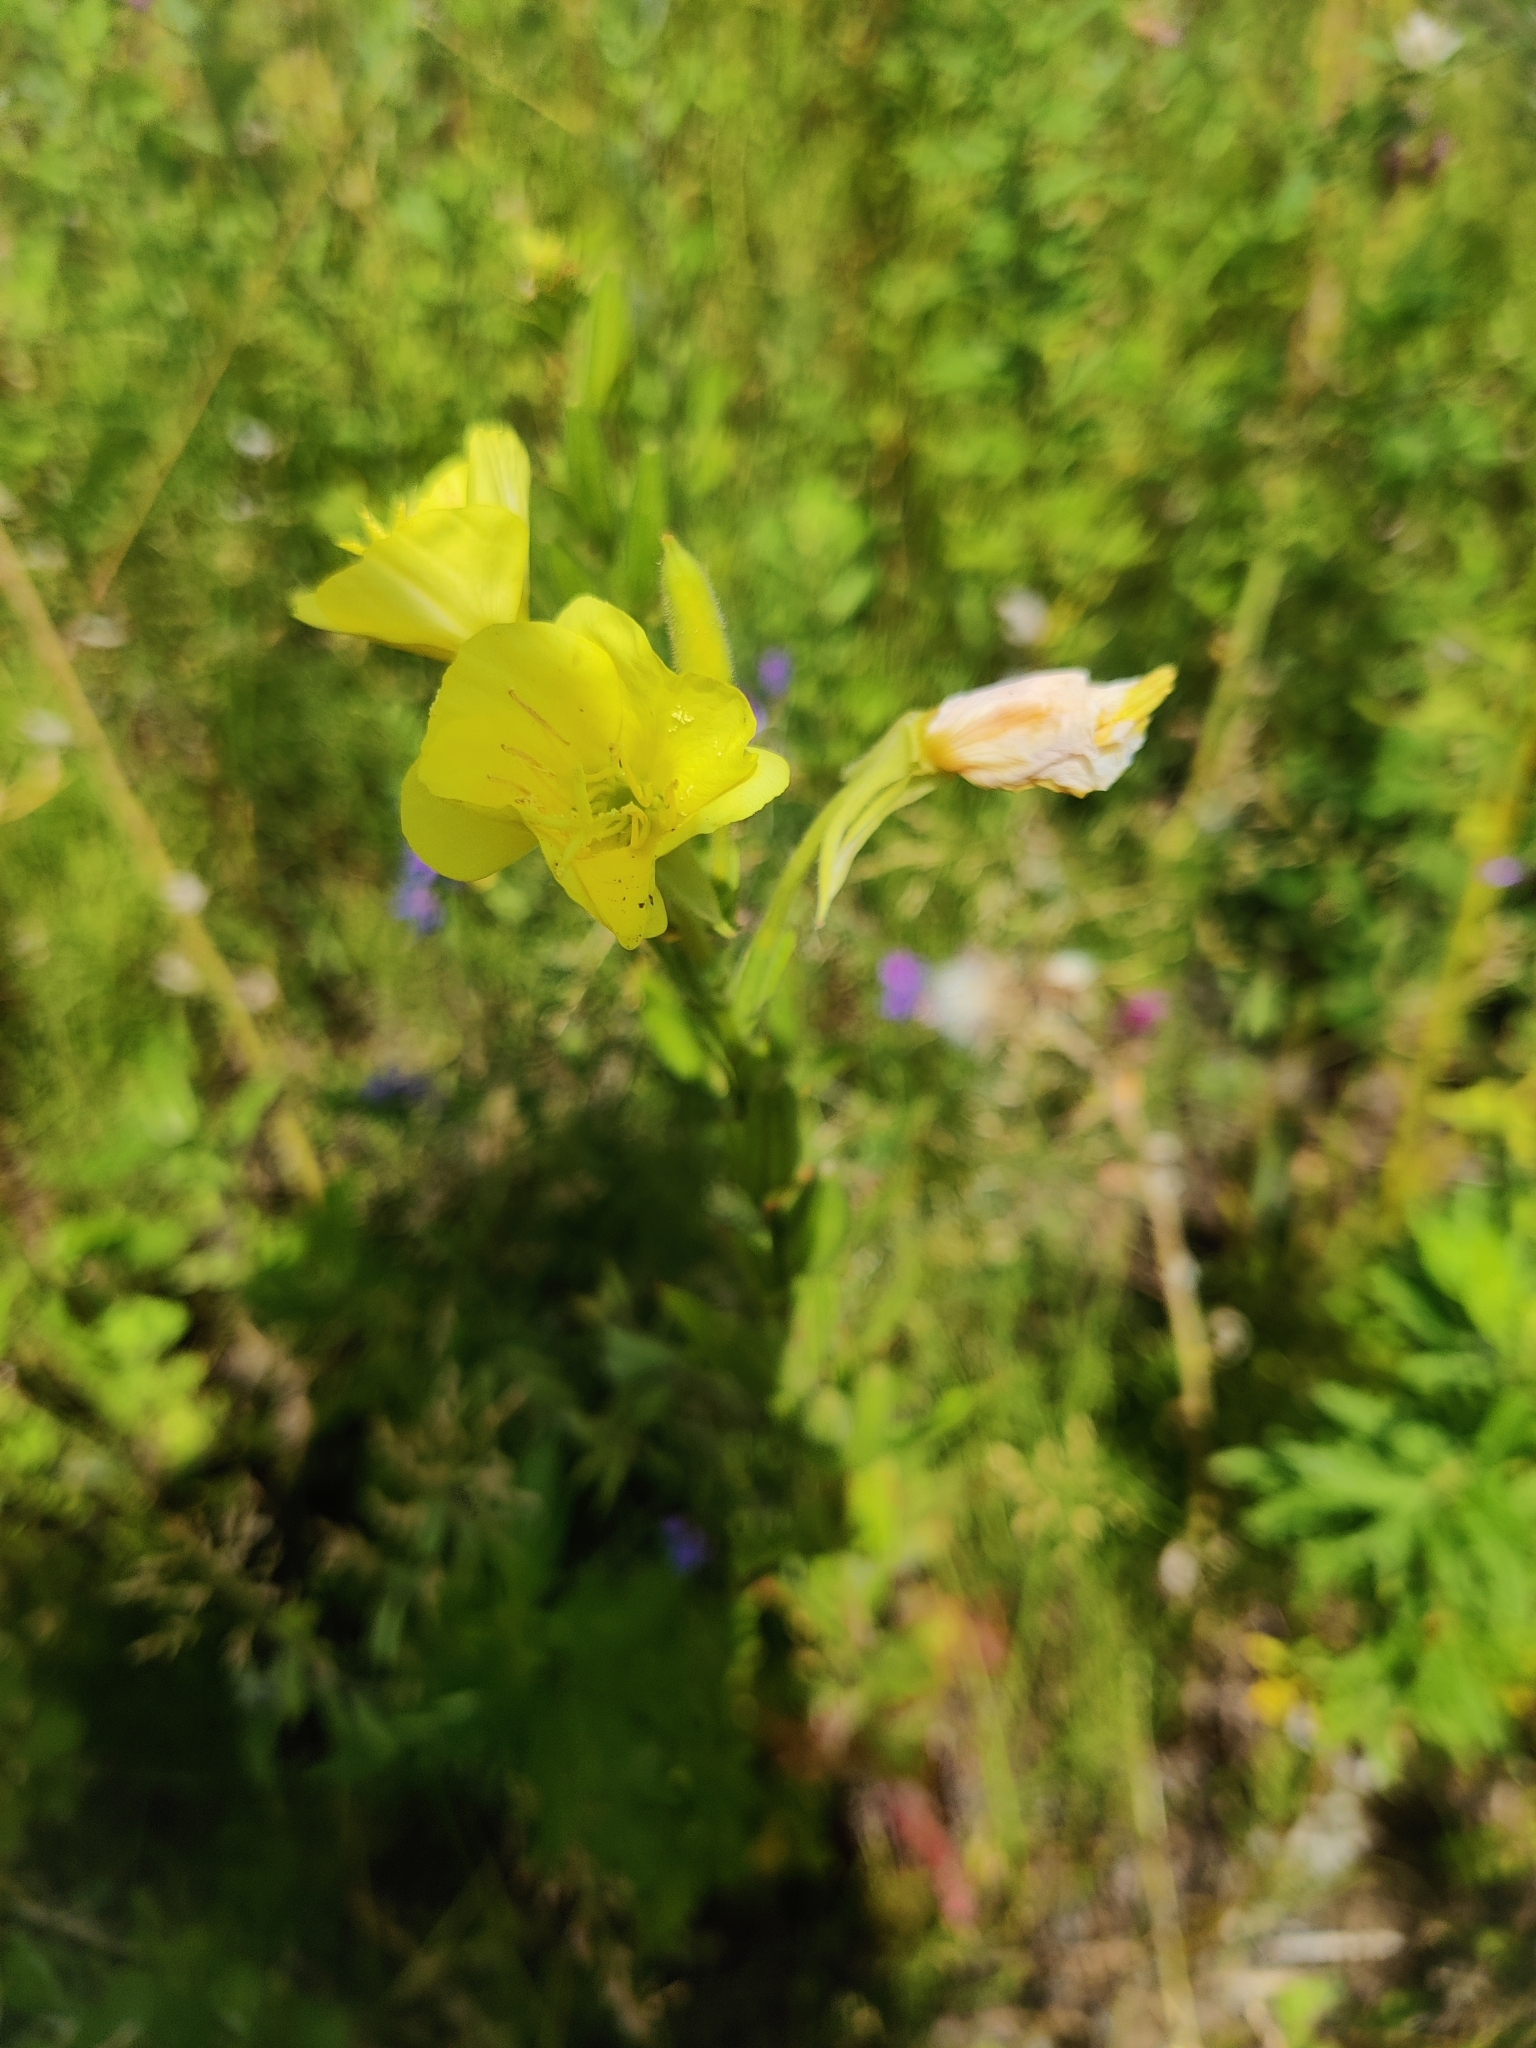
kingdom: Plantae
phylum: Tracheophyta
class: Magnoliopsida
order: Myrtales
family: Onagraceae
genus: Oenothera
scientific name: Oenothera biennis
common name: Common evening-primrose
